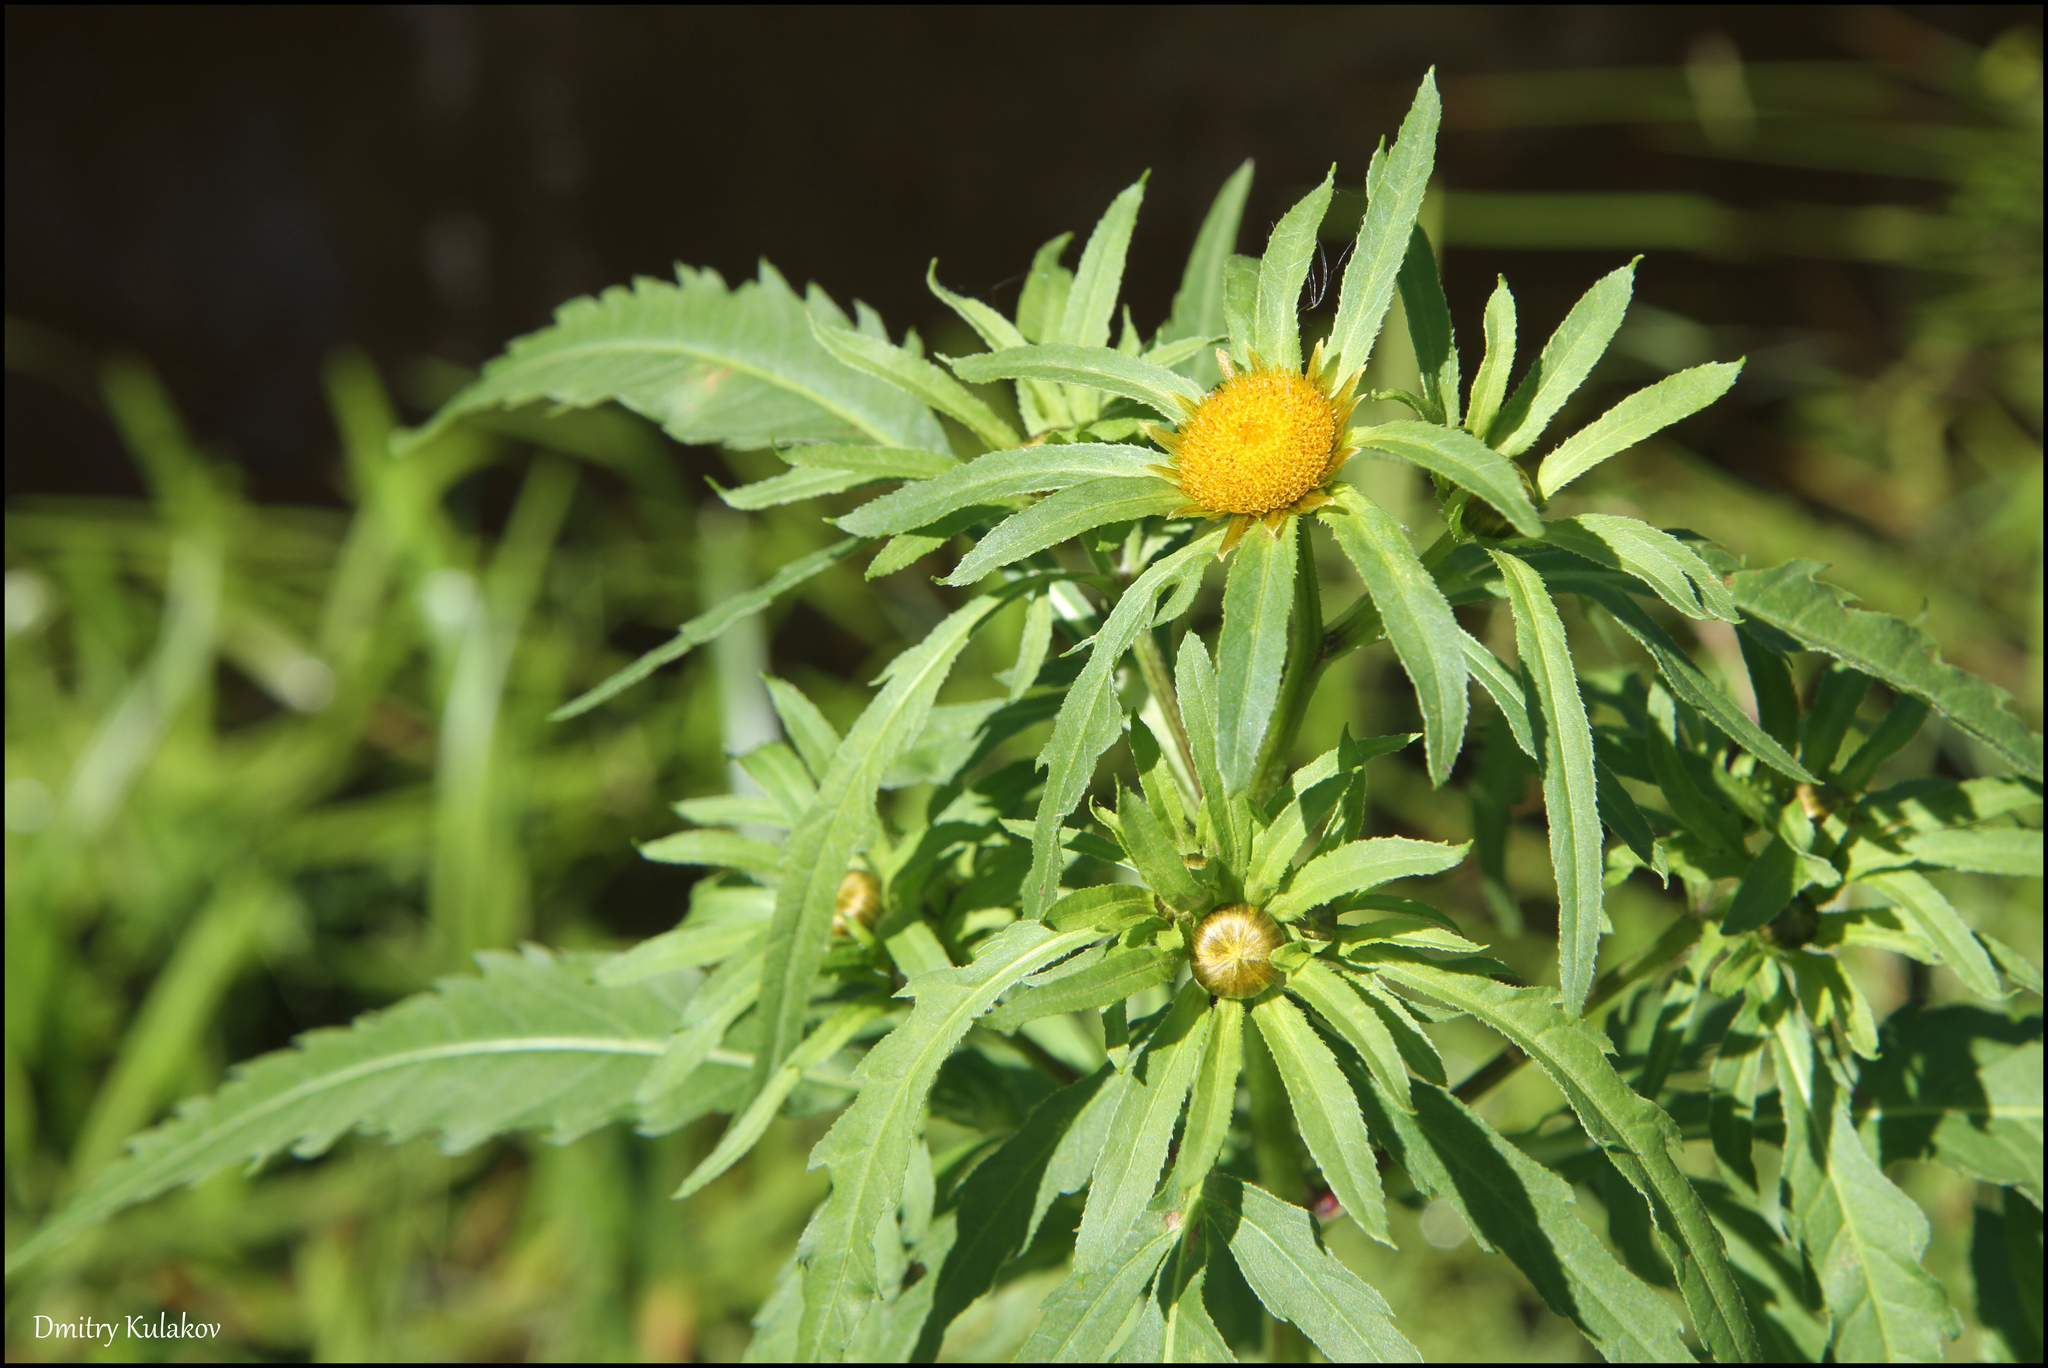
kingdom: Plantae
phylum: Tracheophyta
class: Magnoliopsida
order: Asterales
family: Asteraceae
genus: Bidens
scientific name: Bidens radiata
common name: Radiating bur-marigold
